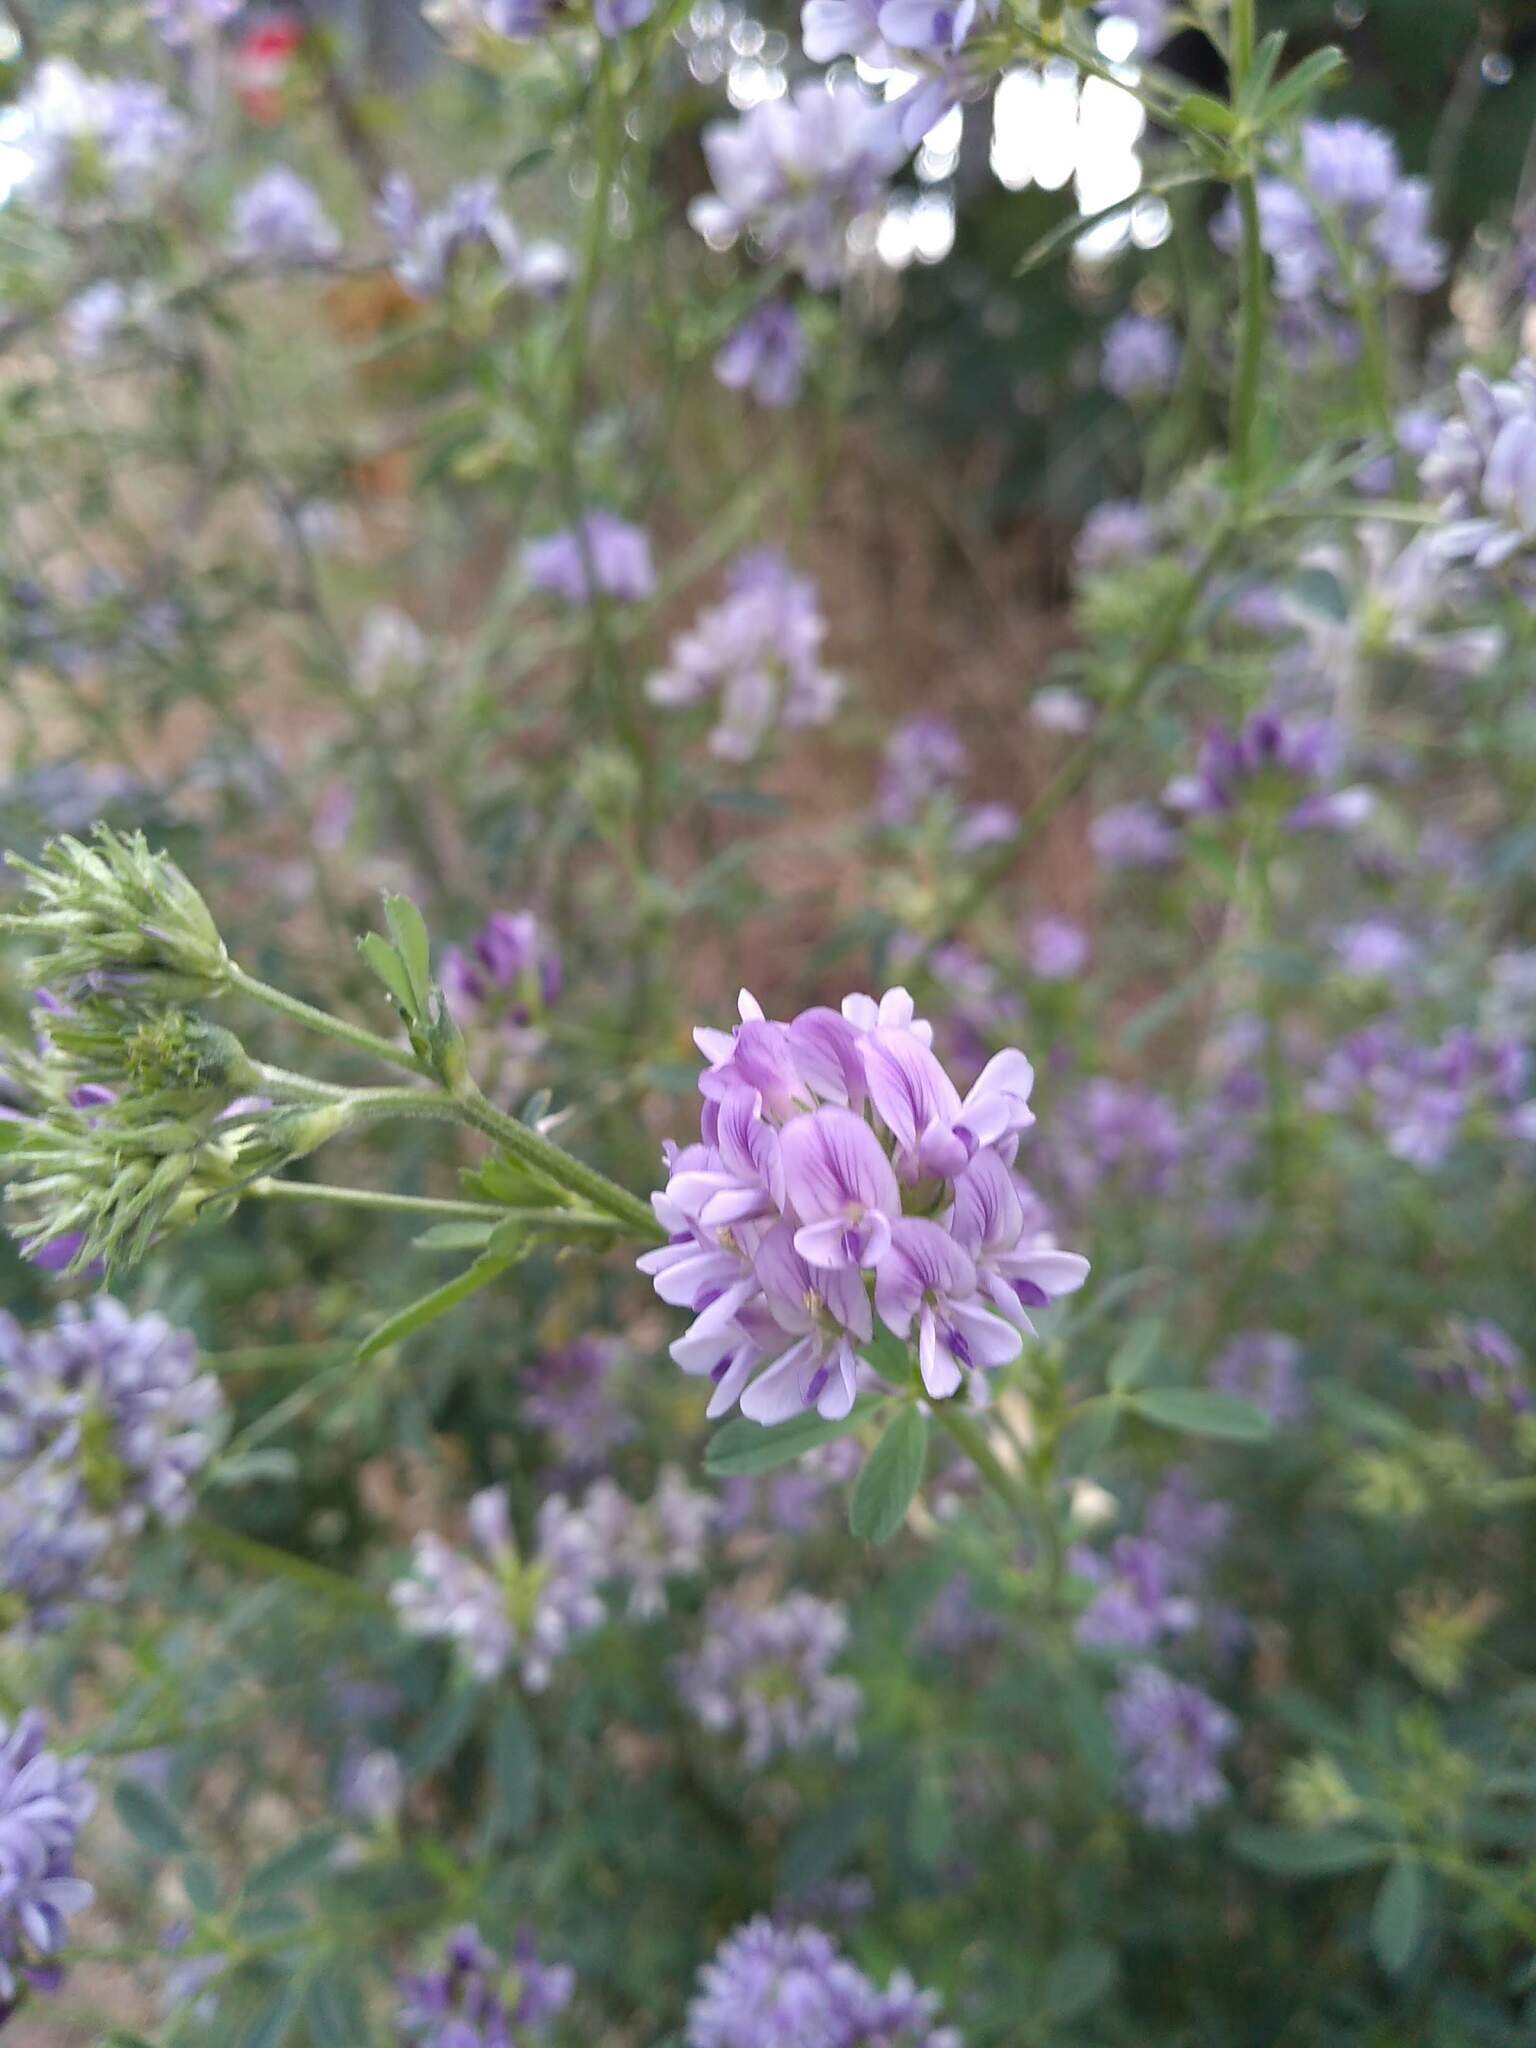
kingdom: Plantae
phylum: Tracheophyta
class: Magnoliopsida
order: Fabales
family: Fabaceae
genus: Medicago
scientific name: Medicago sativa
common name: Alfalfa
